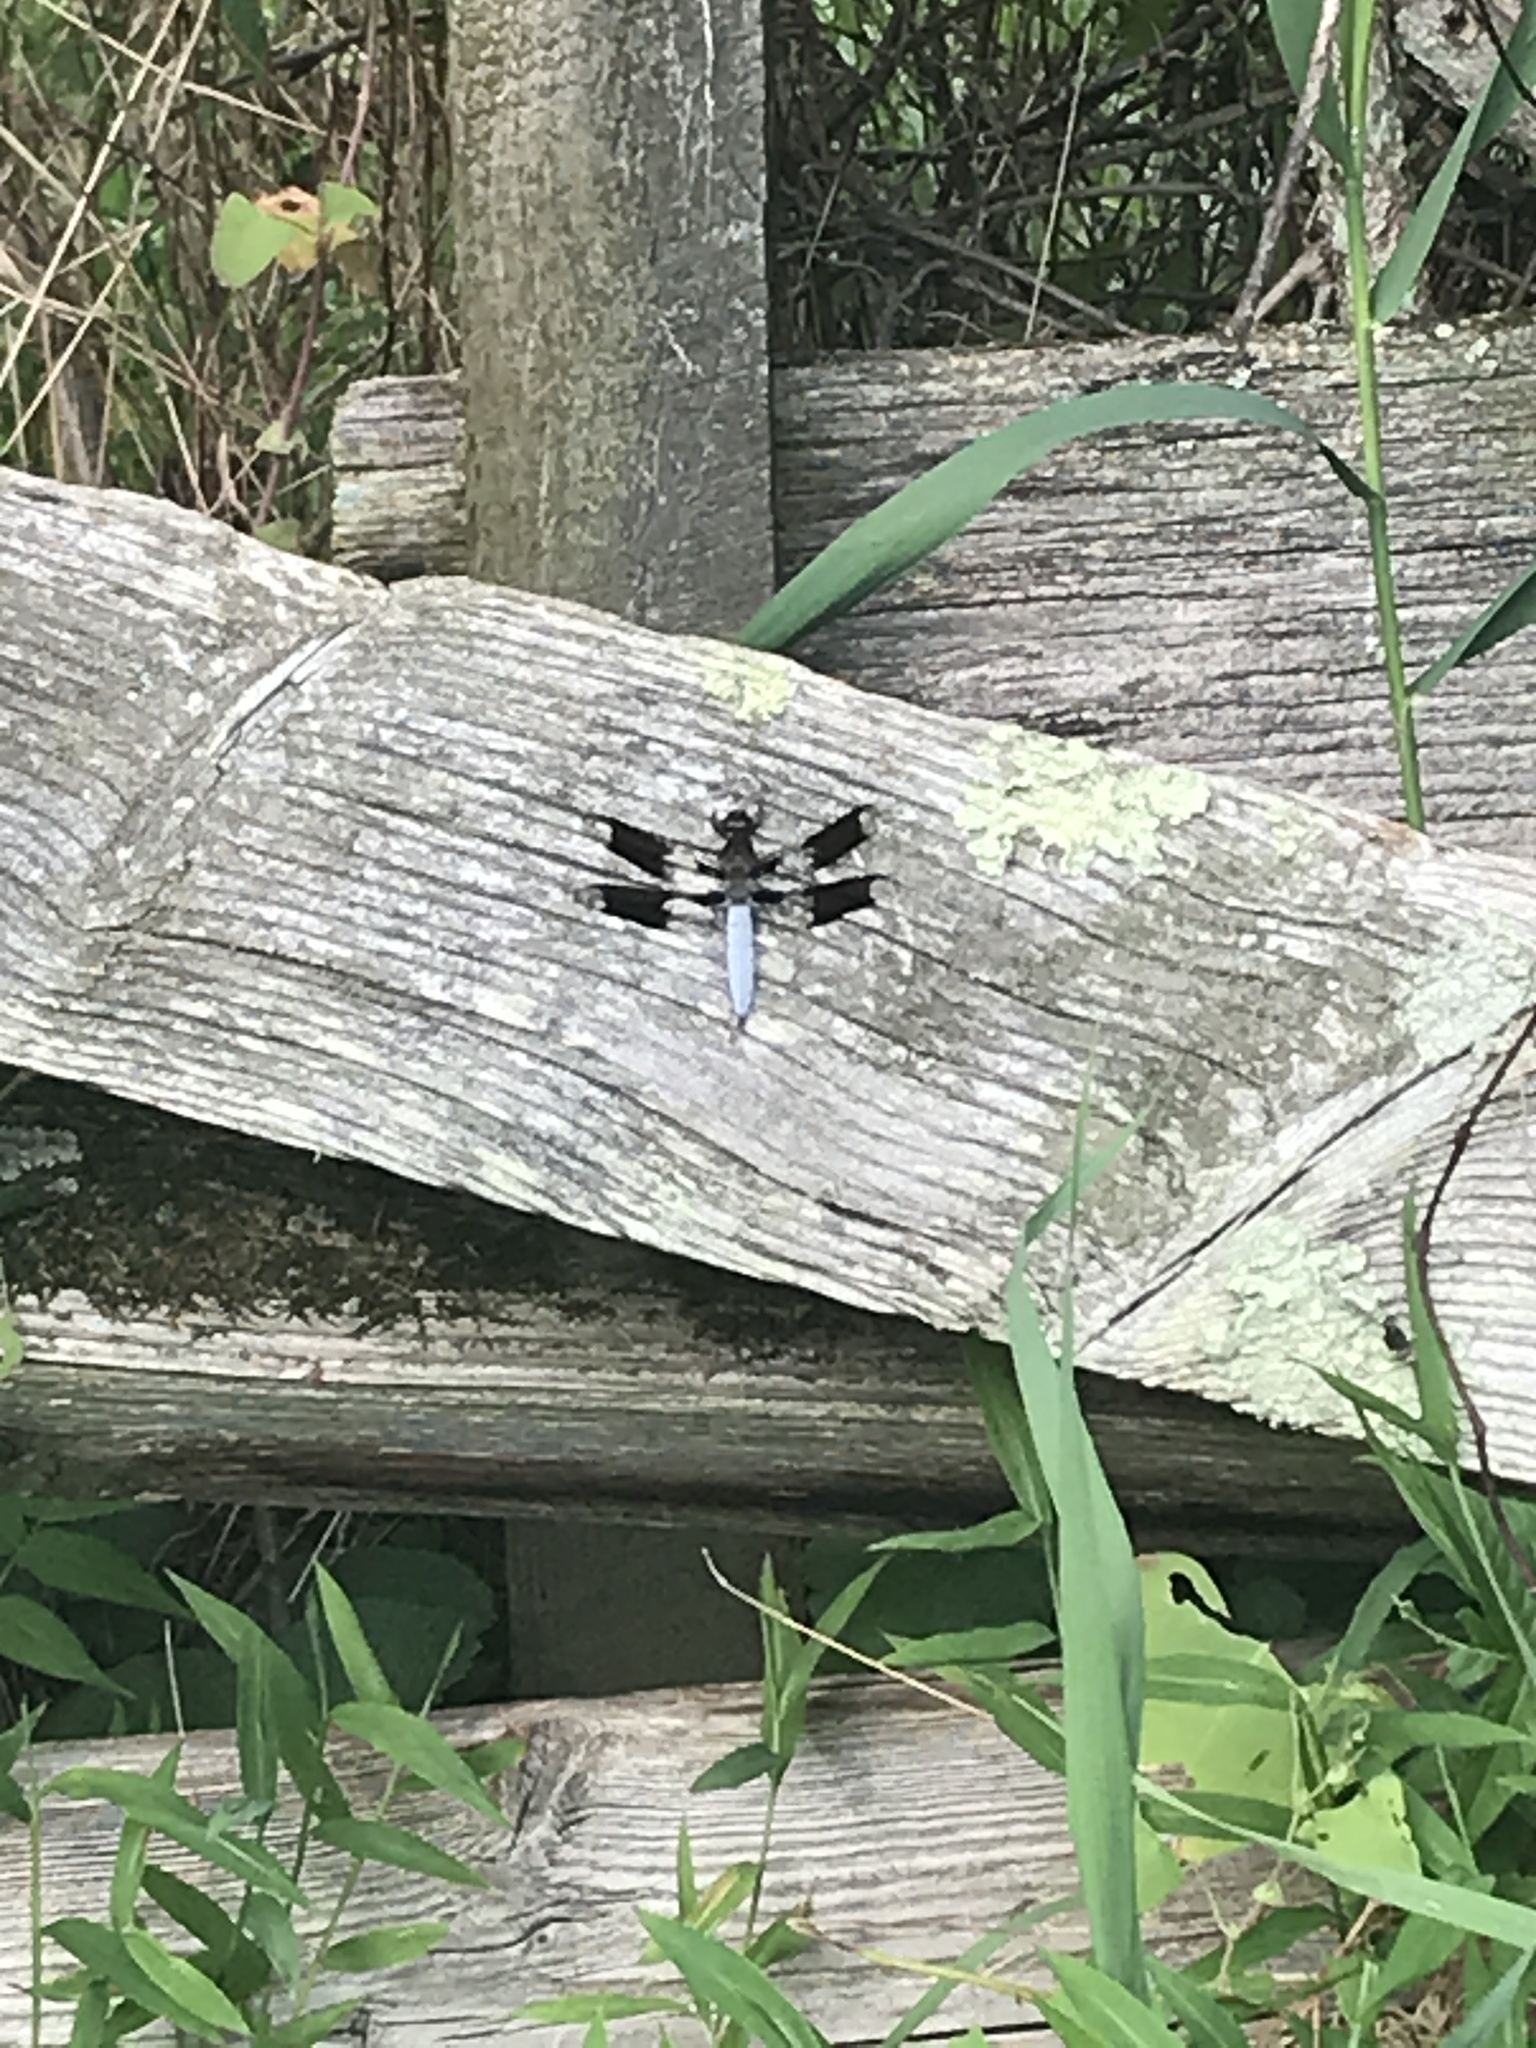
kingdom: Animalia
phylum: Arthropoda
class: Insecta
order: Odonata
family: Libellulidae
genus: Plathemis
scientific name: Plathemis lydia
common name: Common whitetail
